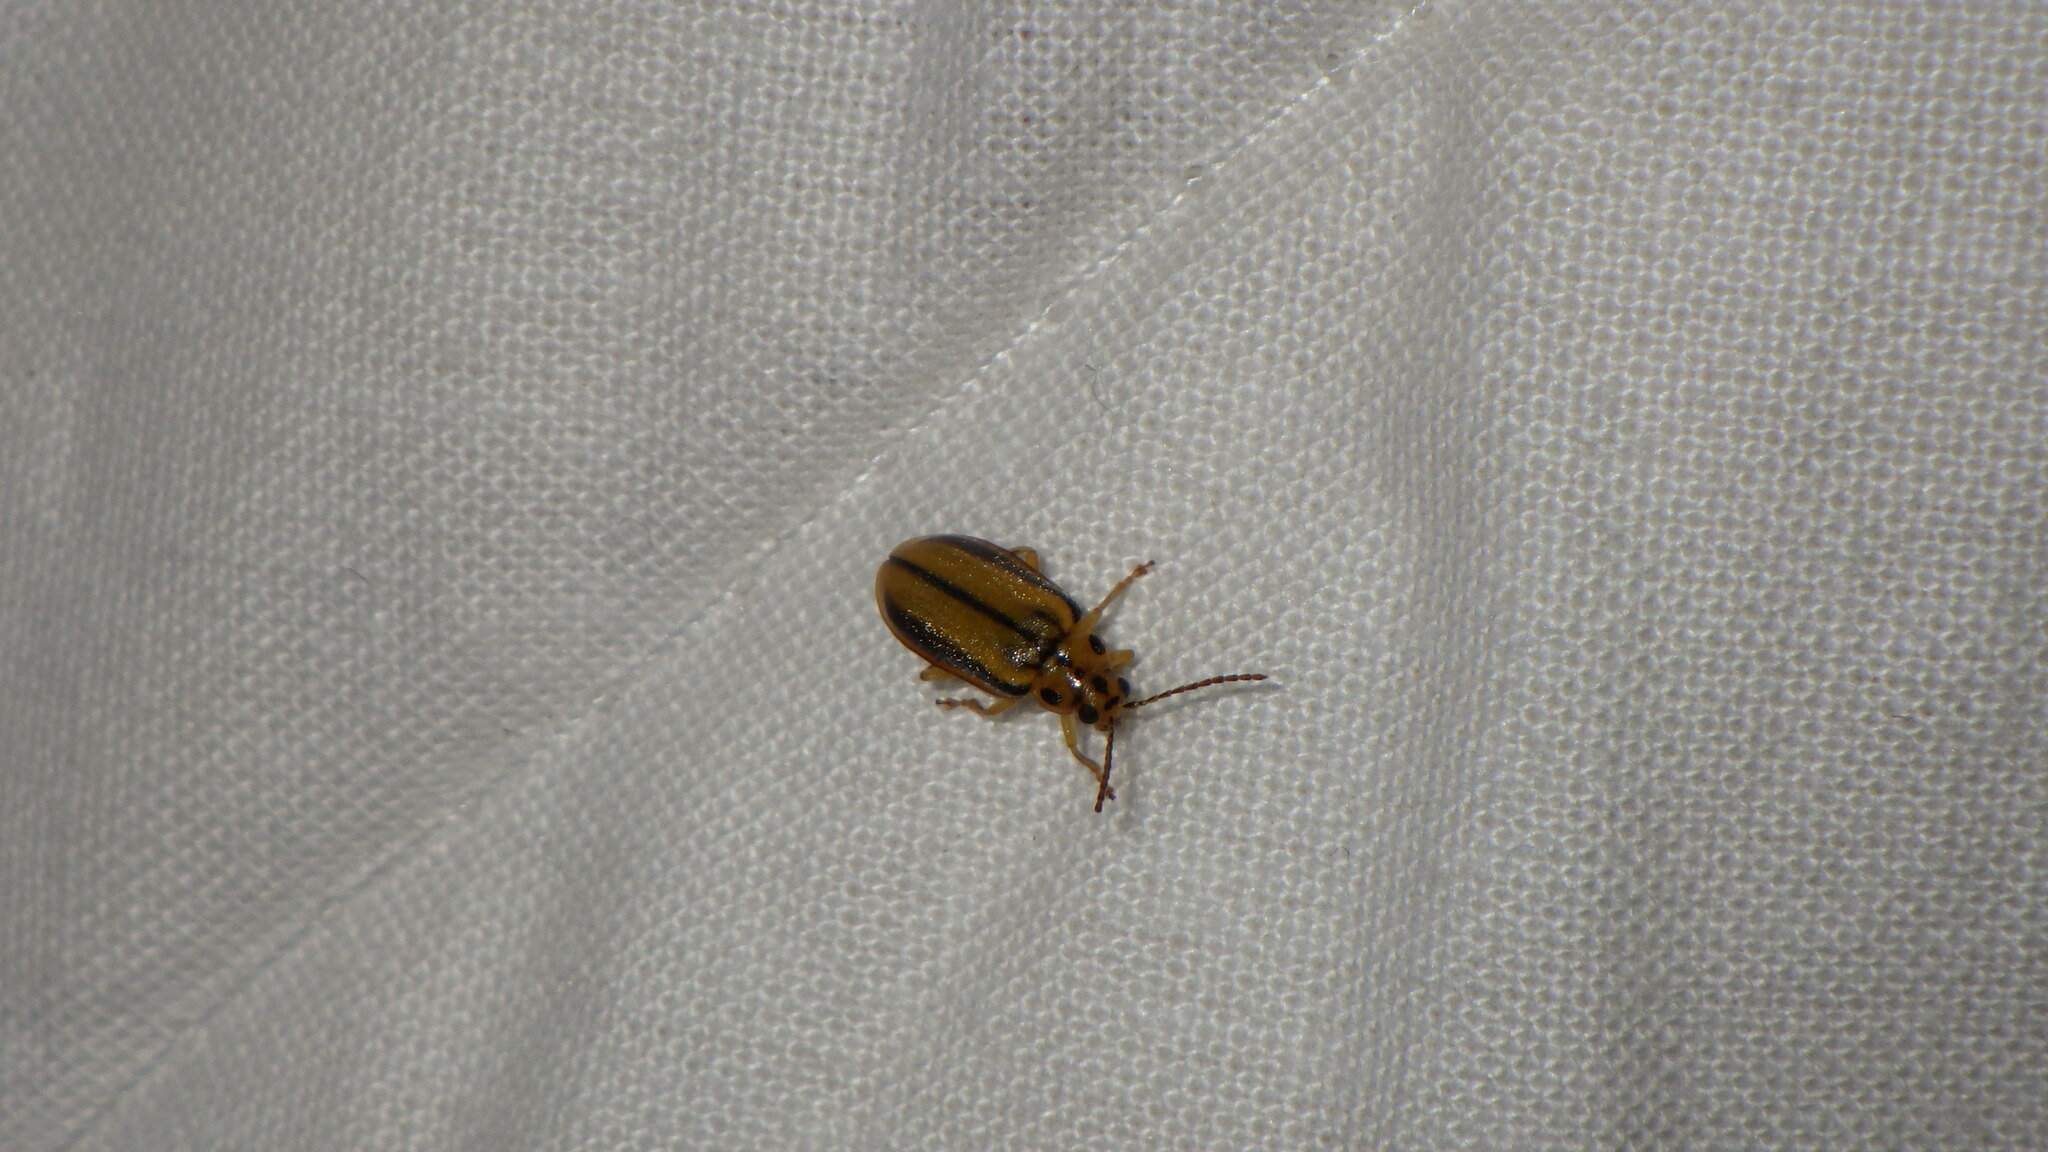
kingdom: Animalia
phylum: Arthropoda
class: Insecta
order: Coleoptera
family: Chrysomelidae
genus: Xanthogaleruca
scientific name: Xanthogaleruca luteola
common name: Elm leaf beetle
